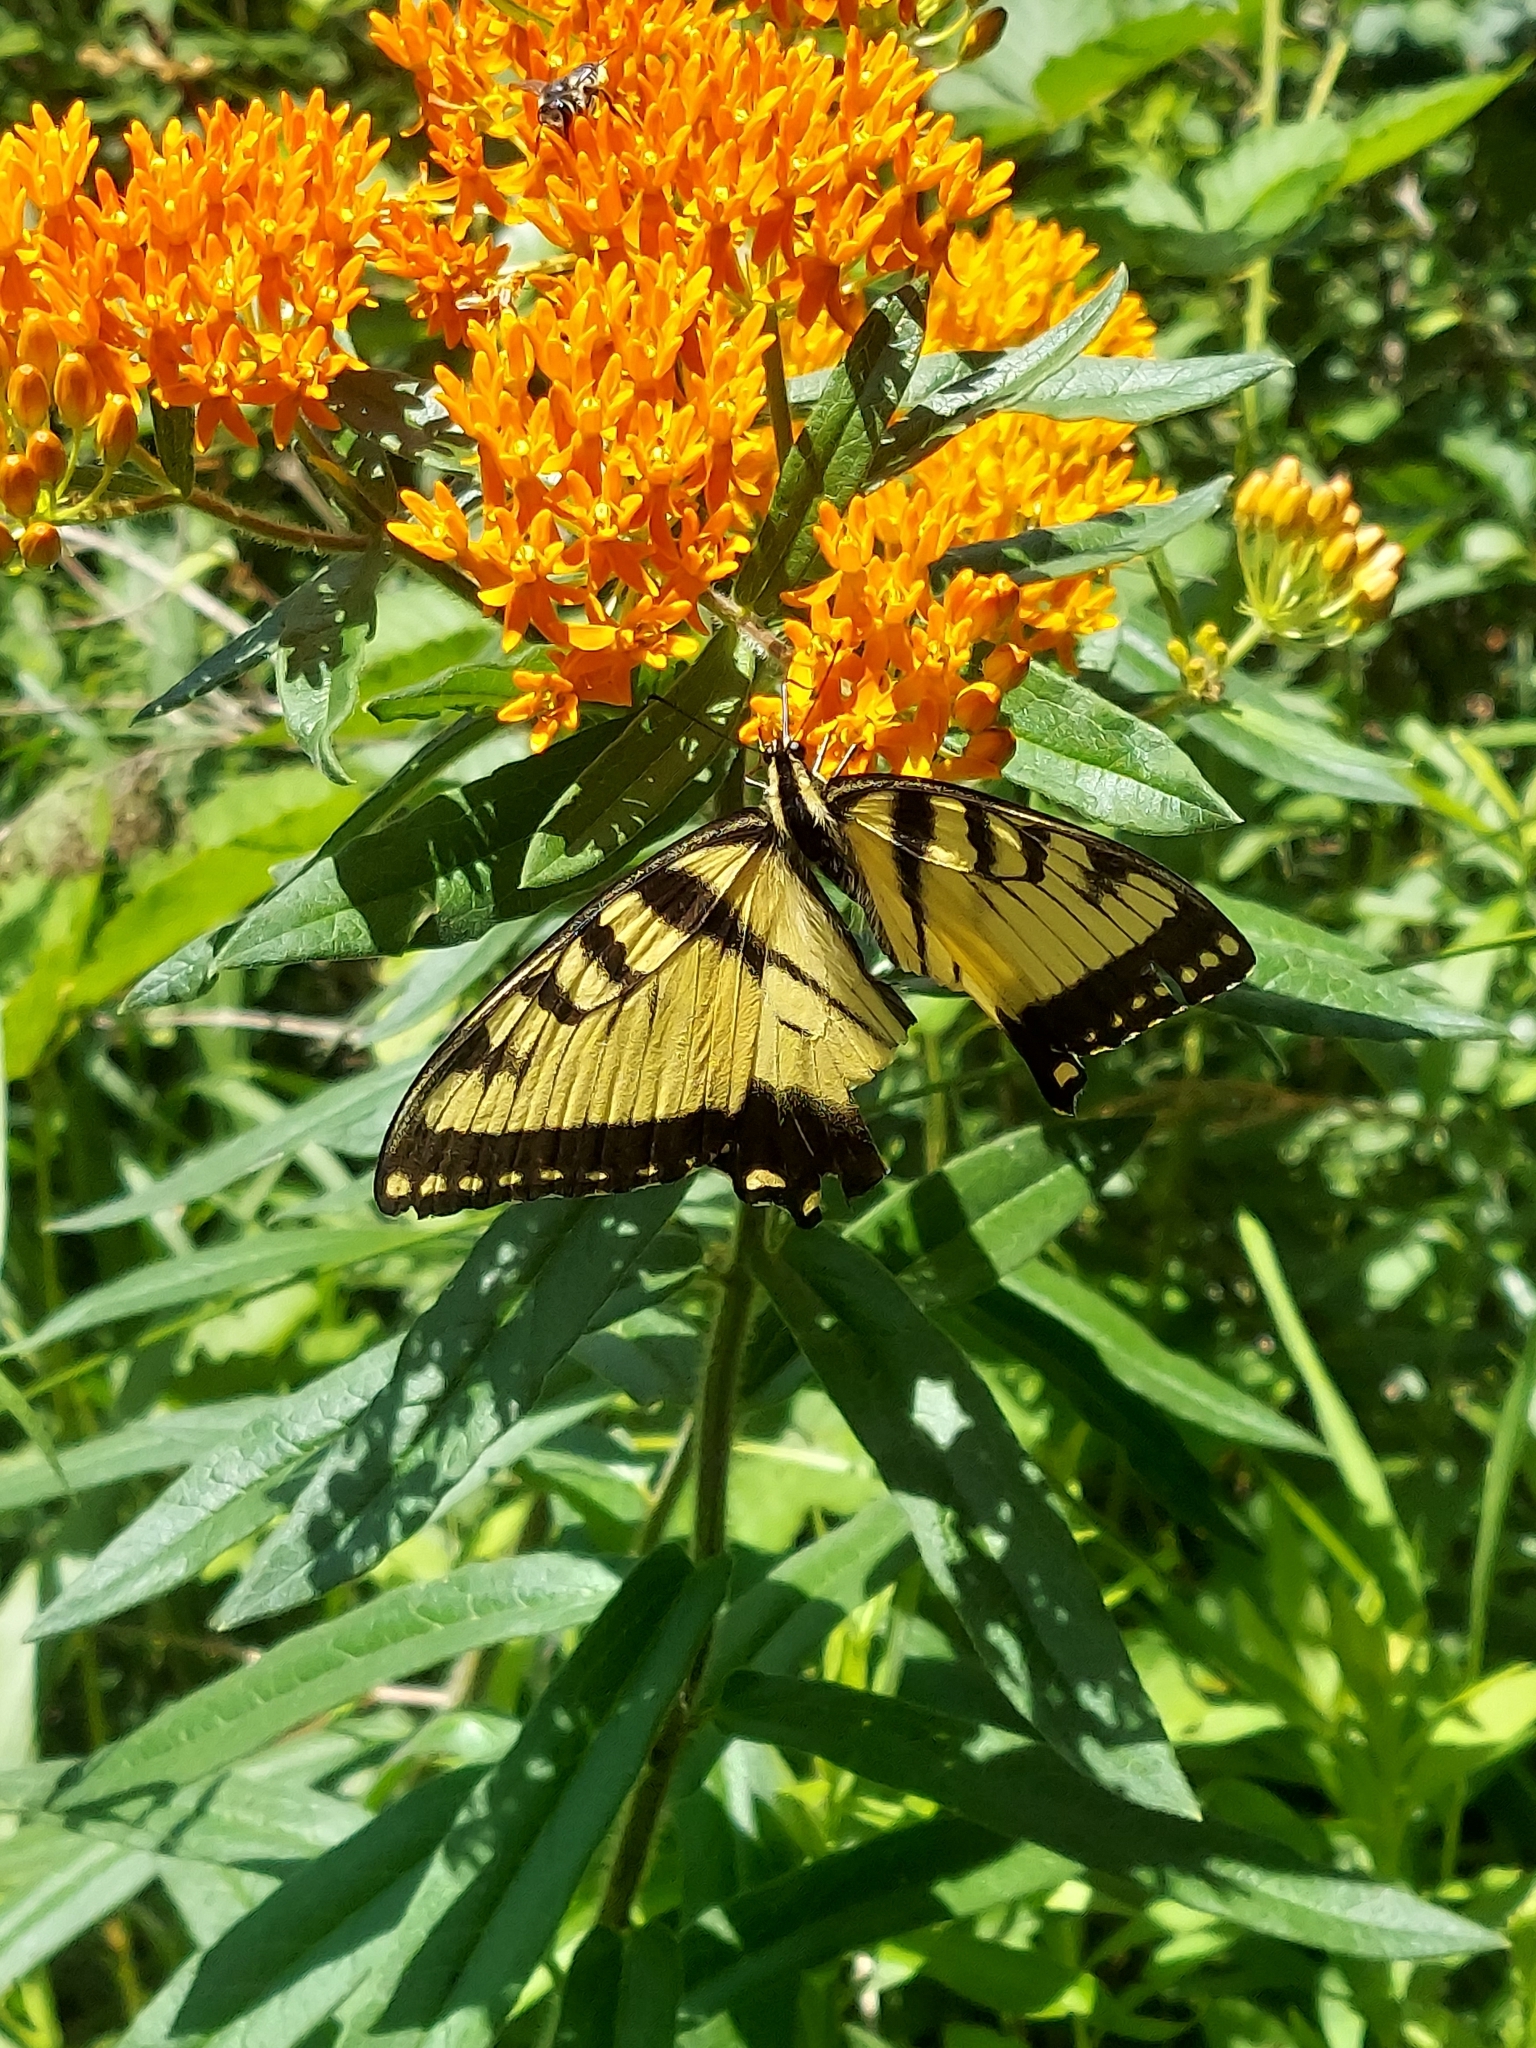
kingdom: Animalia
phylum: Arthropoda
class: Insecta
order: Lepidoptera
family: Papilionidae
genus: Papilio
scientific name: Papilio glaucus
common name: Tiger swallowtail
